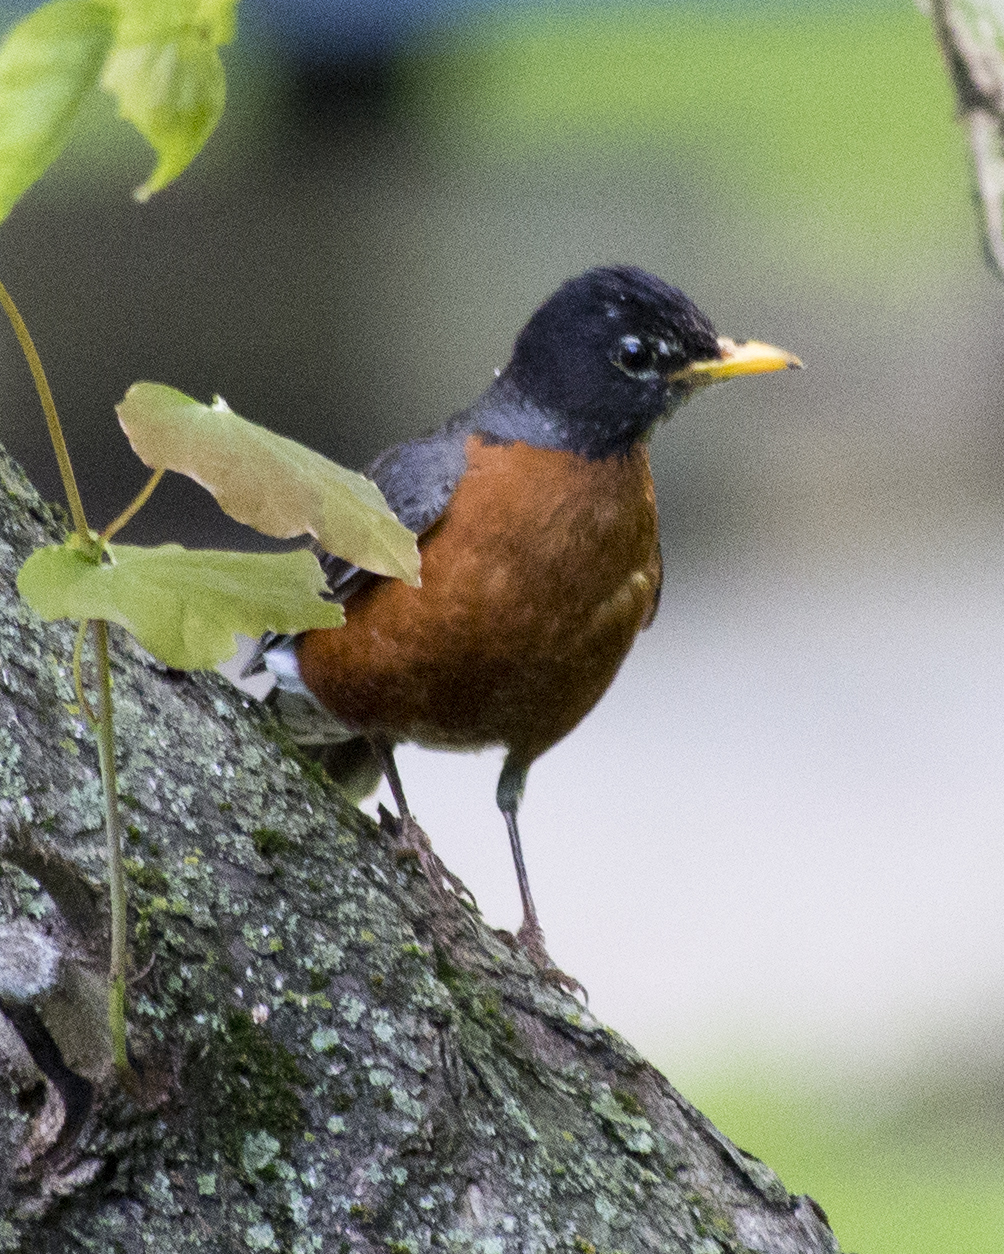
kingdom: Animalia
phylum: Chordata
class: Aves
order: Passeriformes
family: Turdidae
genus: Turdus
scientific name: Turdus migratorius
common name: American robin
